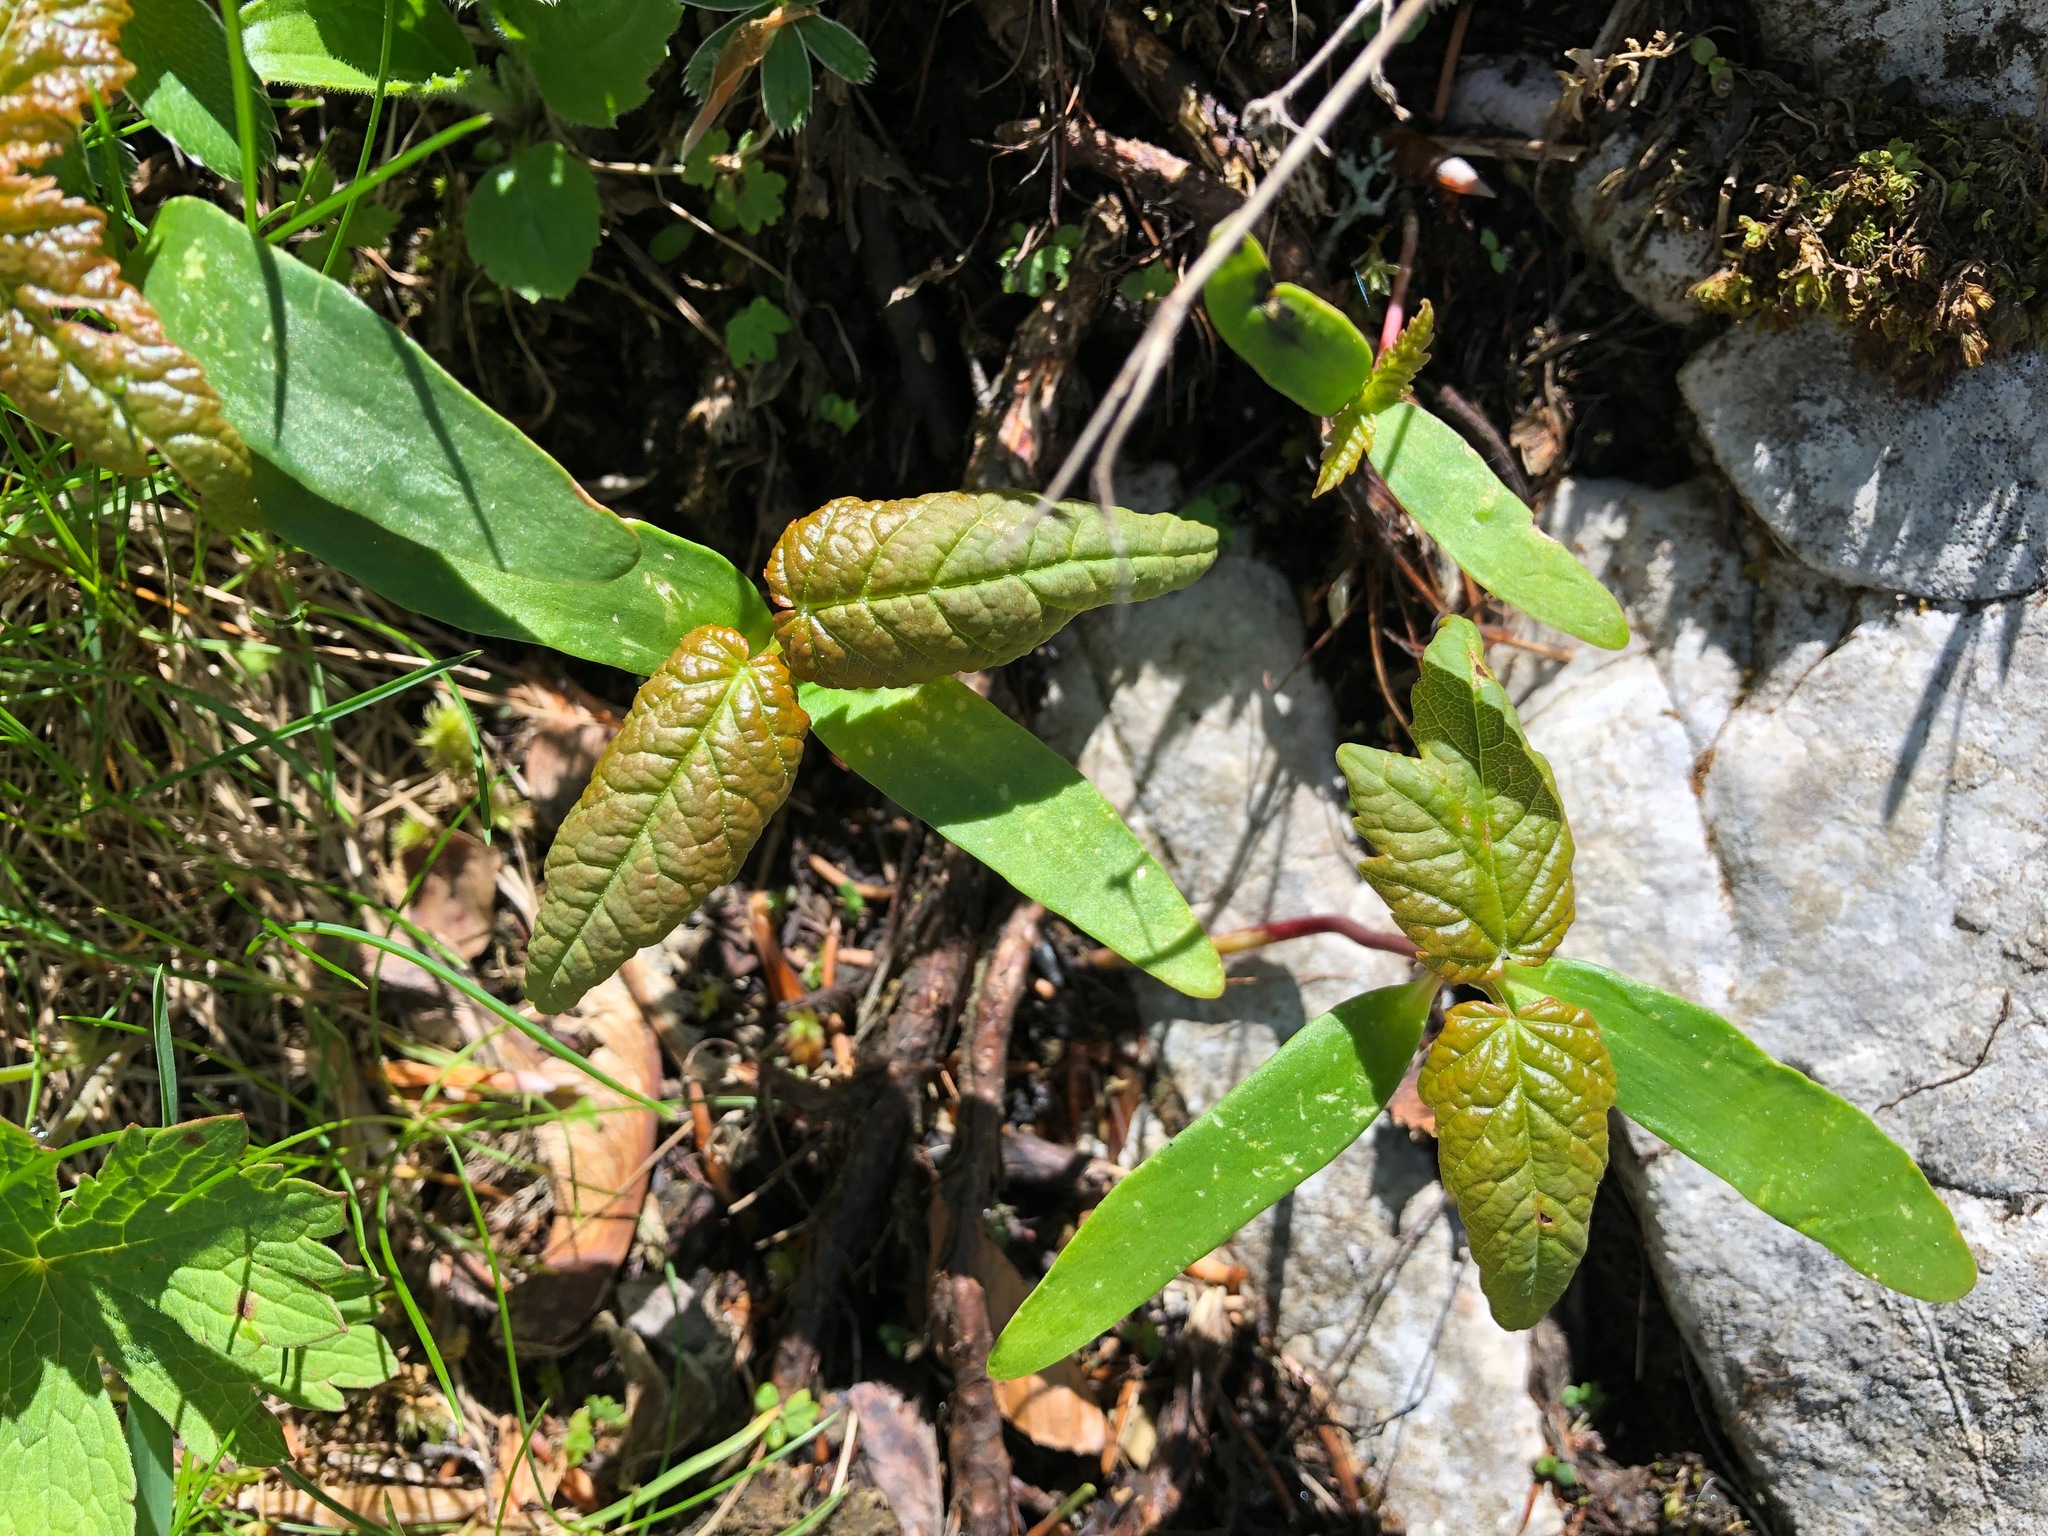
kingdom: Plantae
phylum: Tracheophyta
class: Magnoliopsida
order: Sapindales
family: Sapindaceae
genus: Acer
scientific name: Acer pseudoplatanus
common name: Sycamore
